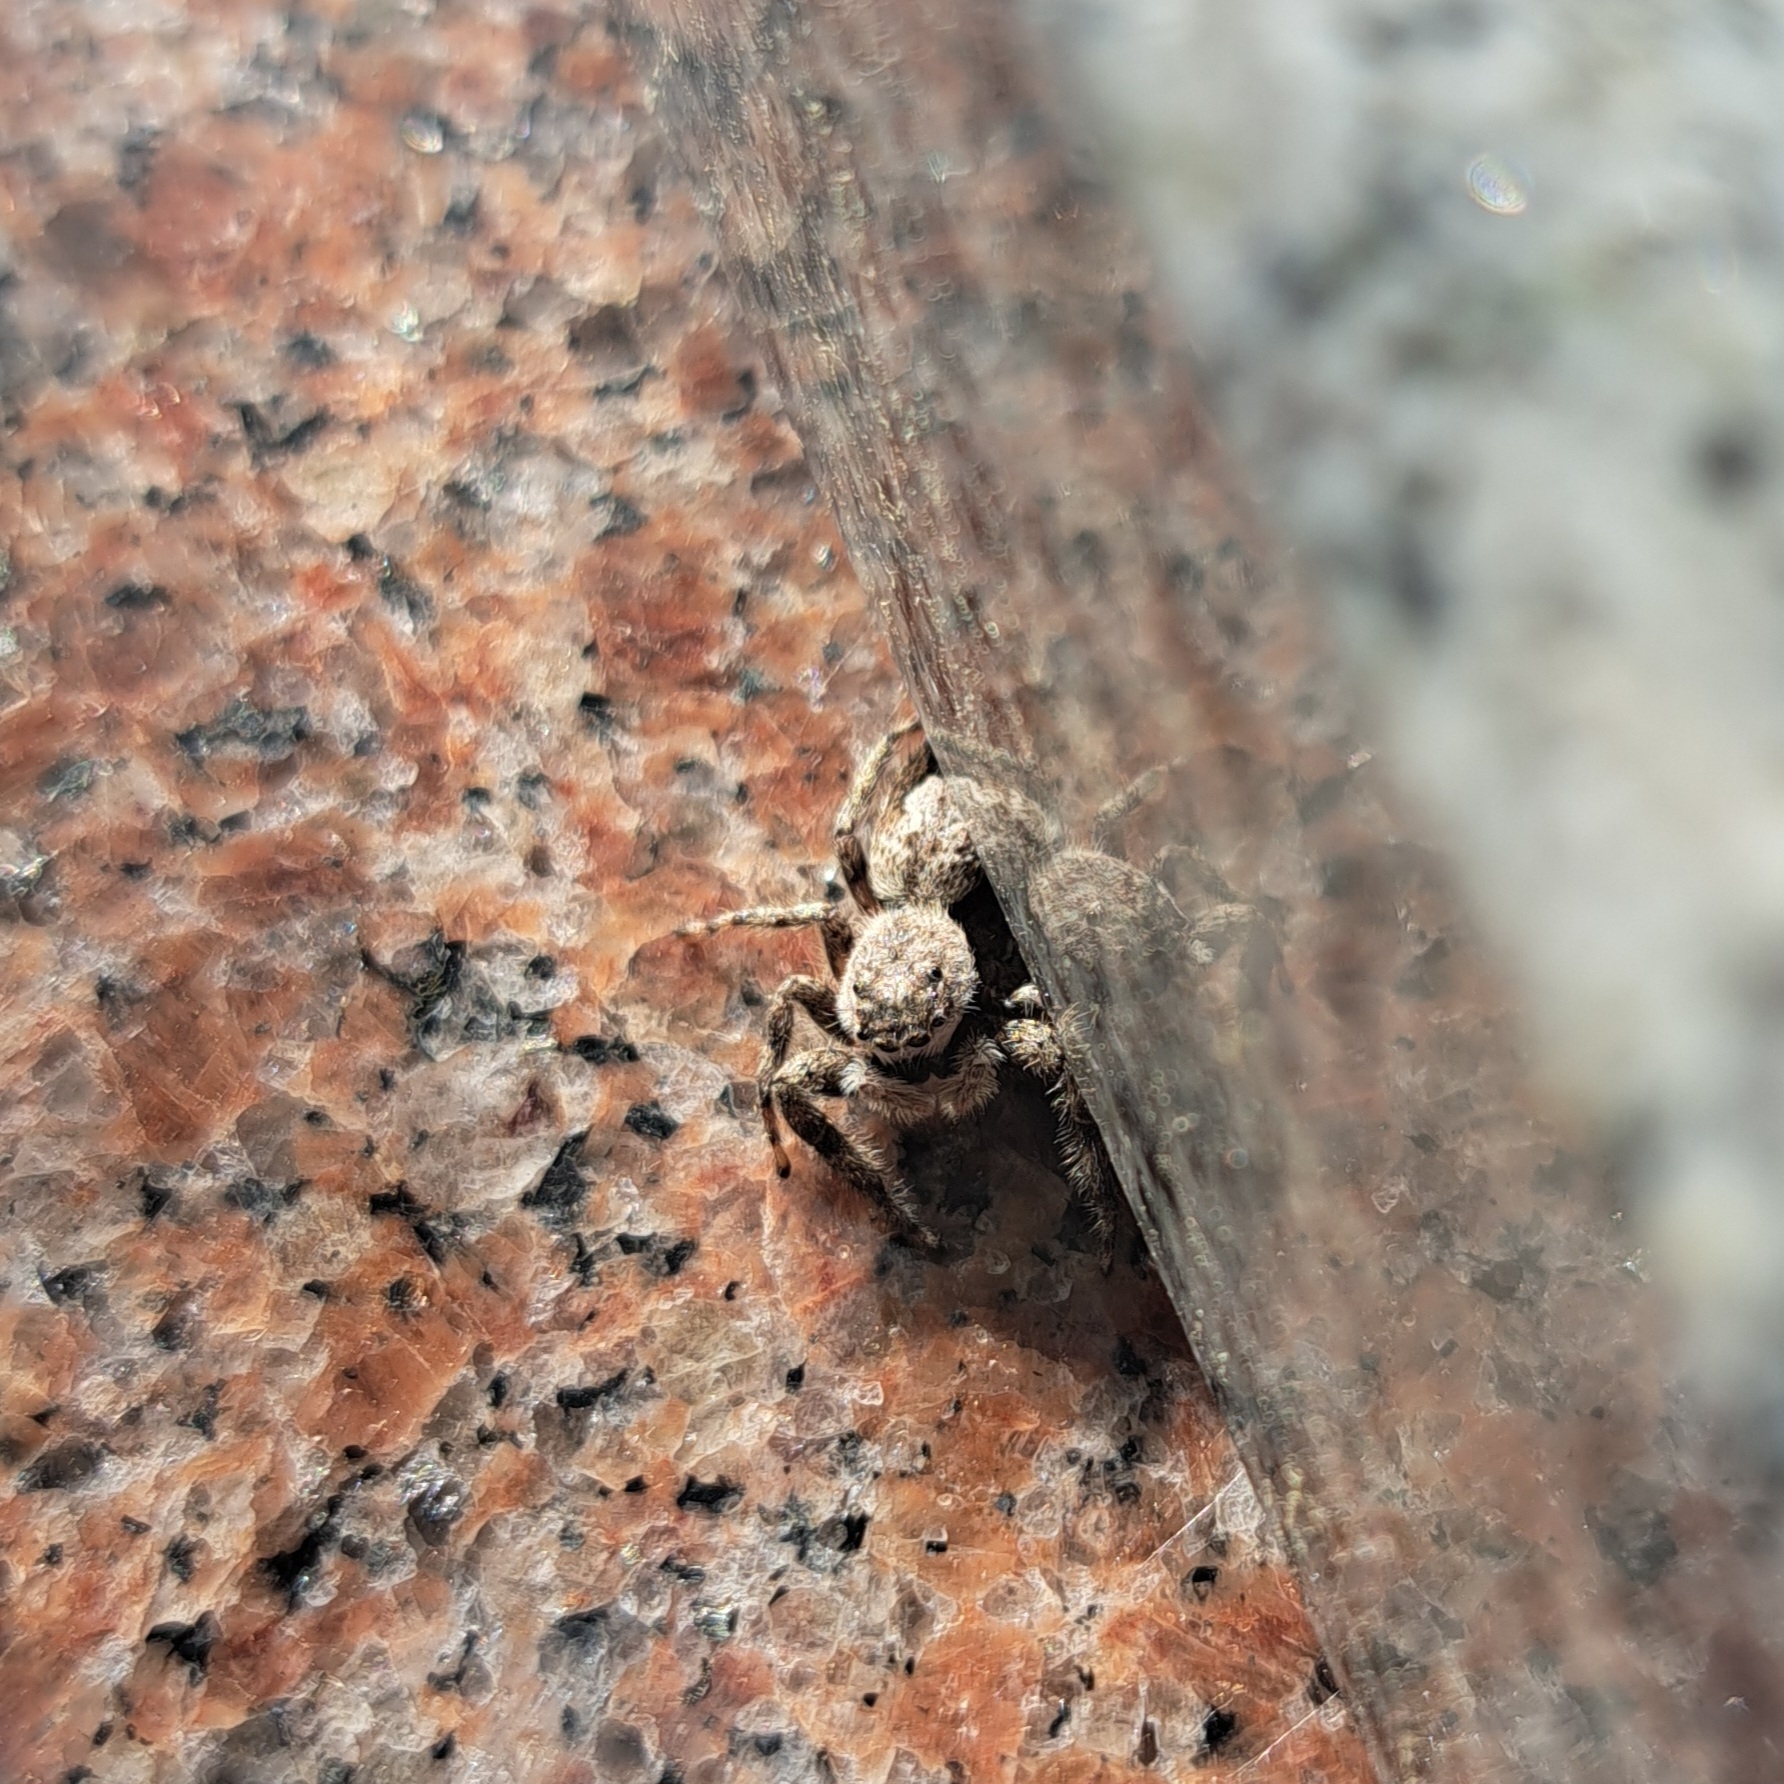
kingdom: Animalia
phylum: Arthropoda
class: Arachnida
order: Araneae
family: Salticidae
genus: Platycryptus
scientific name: Platycryptus undatus
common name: Tan jumping spider
